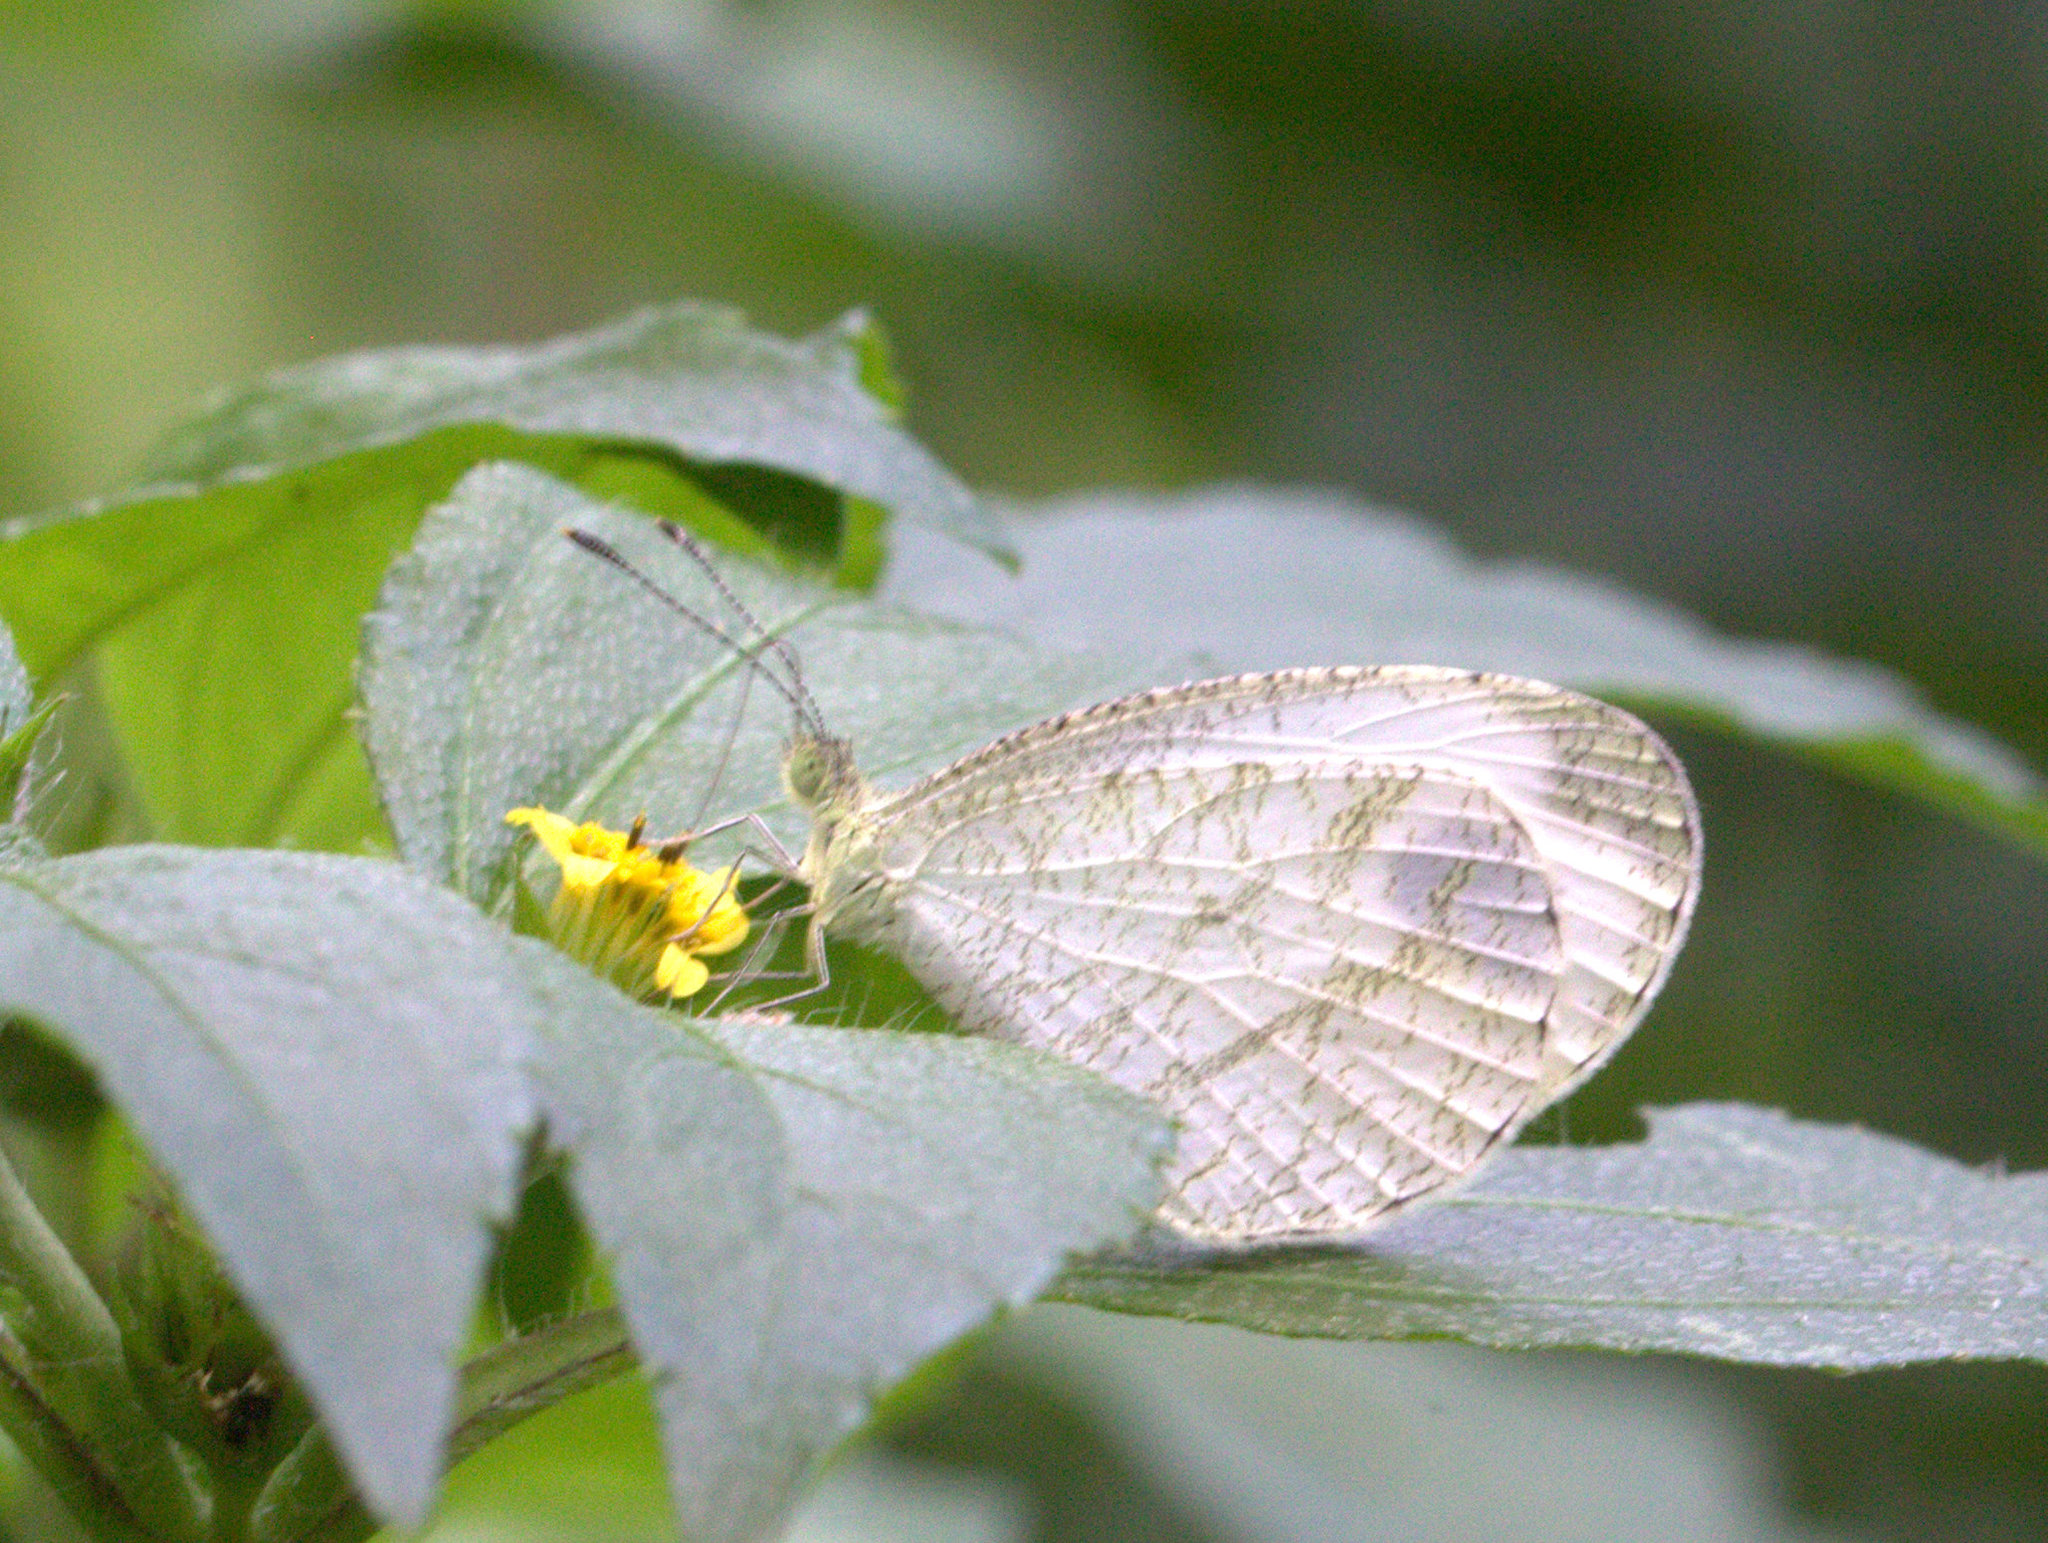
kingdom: Animalia
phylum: Arthropoda
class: Insecta
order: Lepidoptera
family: Pieridae
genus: Leptosia
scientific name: Leptosia nina
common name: Psyche
